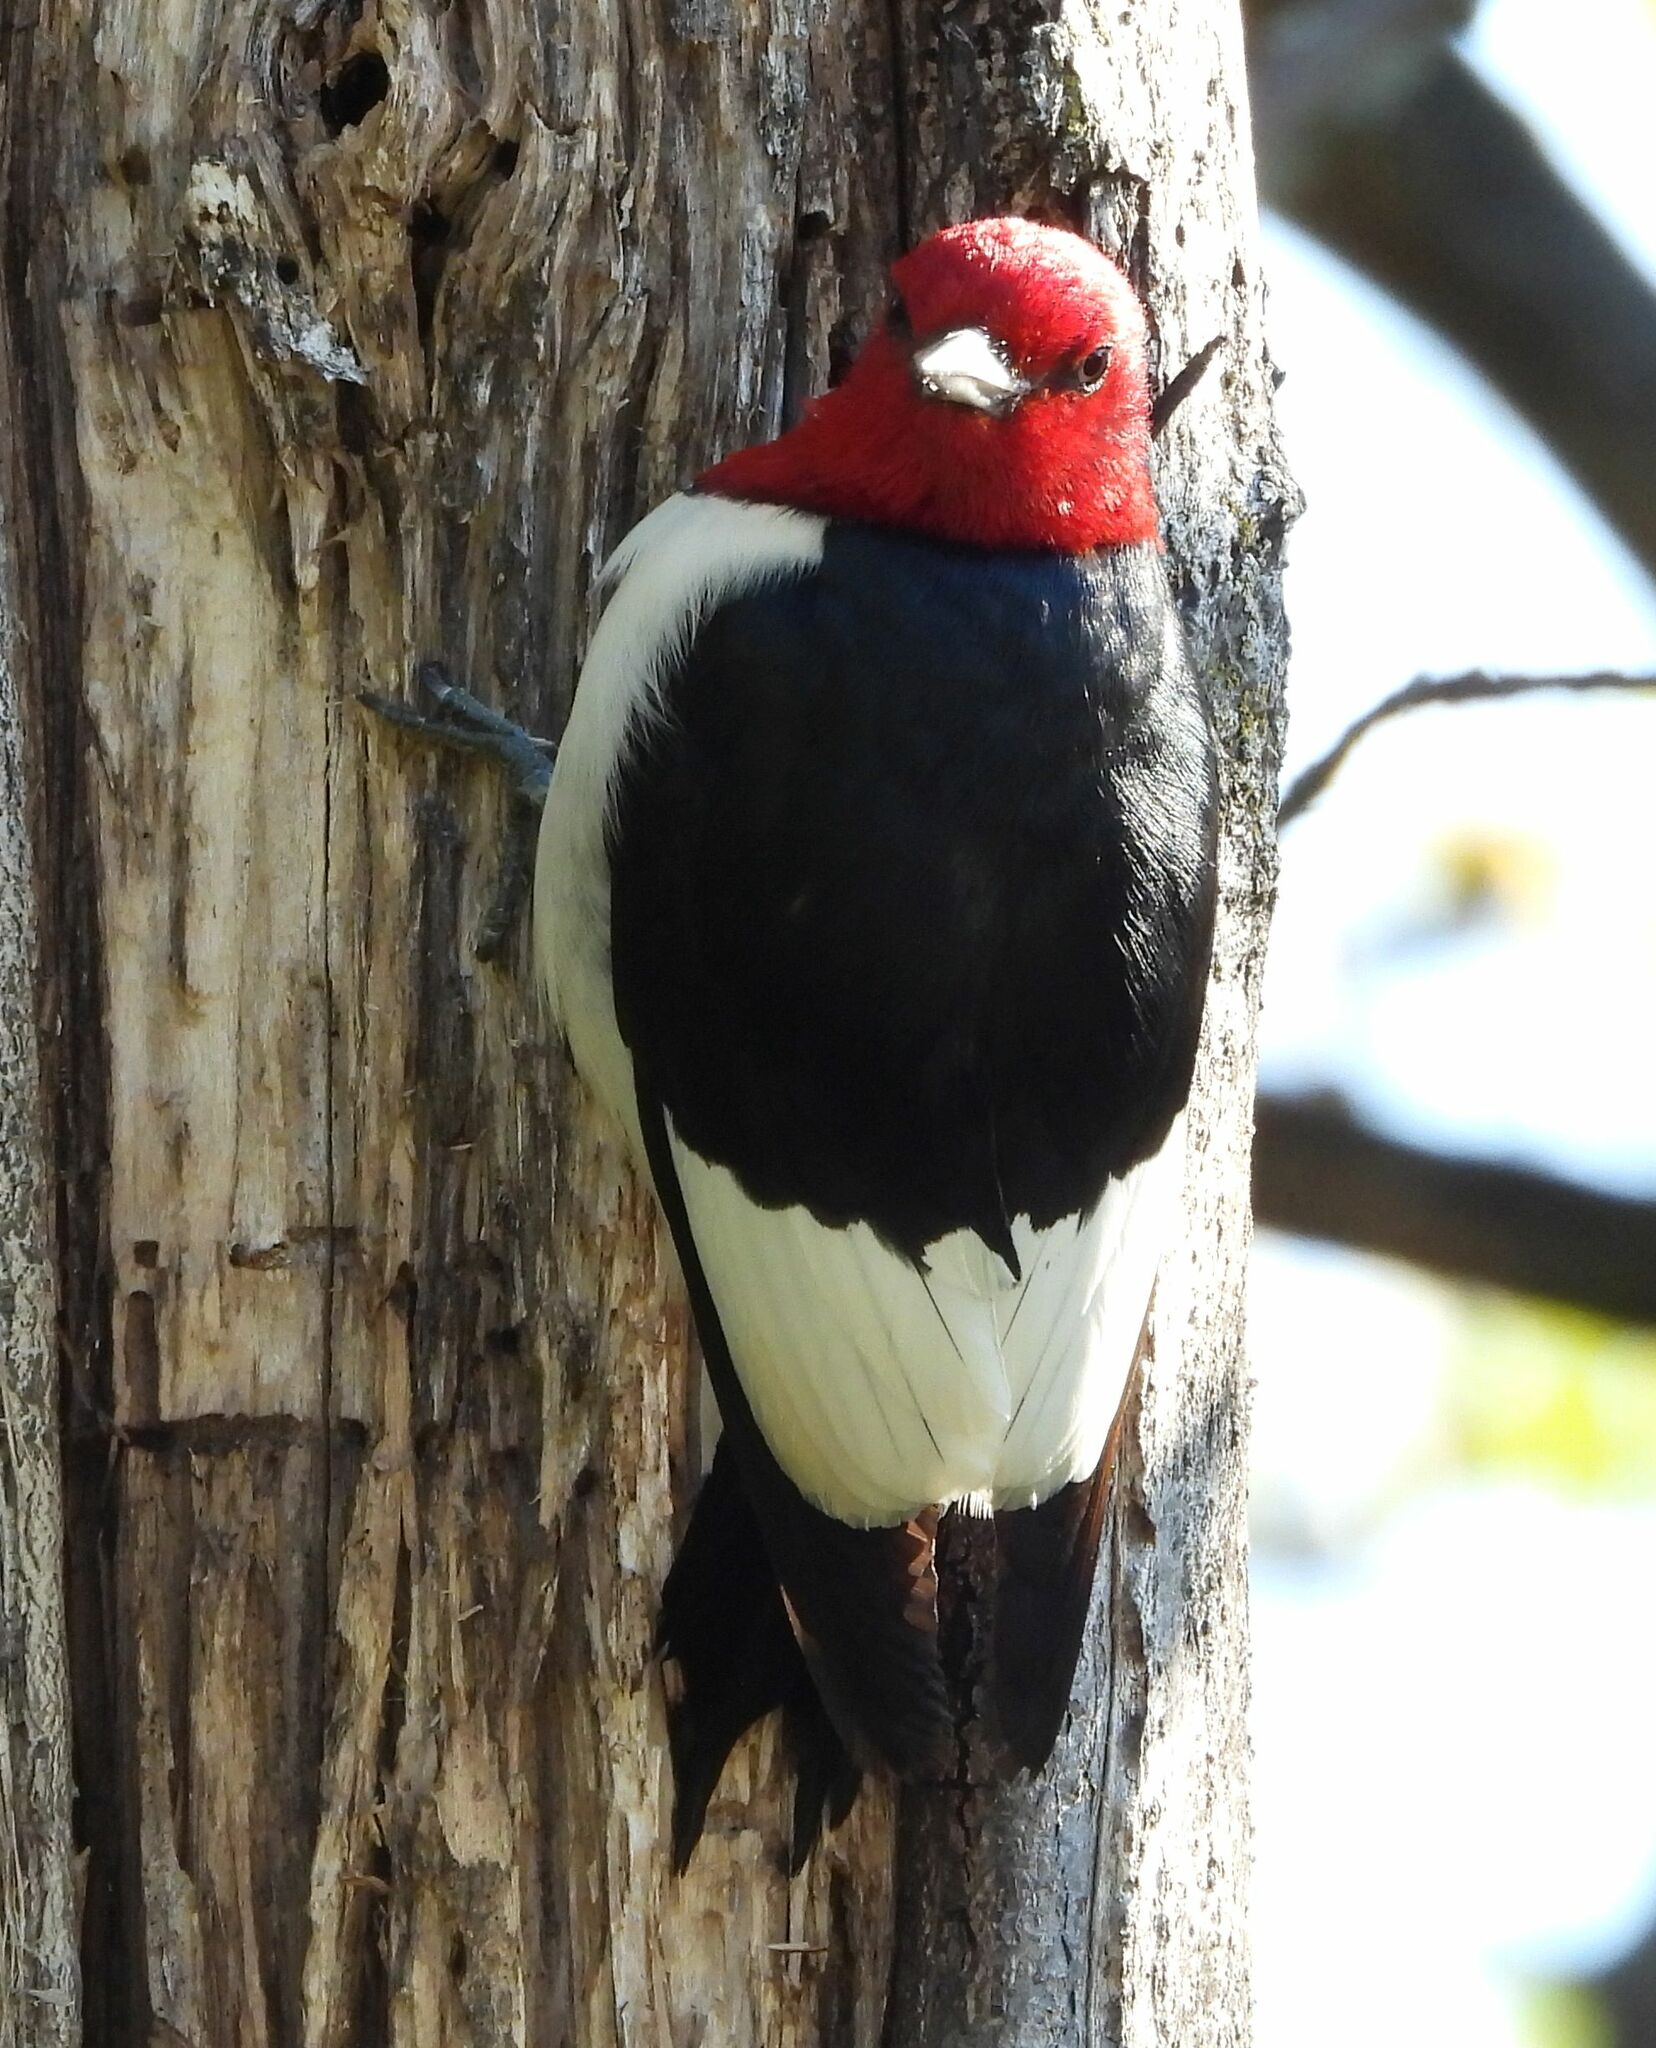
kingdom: Animalia
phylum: Chordata
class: Aves
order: Piciformes
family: Picidae
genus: Melanerpes
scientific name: Melanerpes erythrocephalus
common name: Red-headed woodpecker
